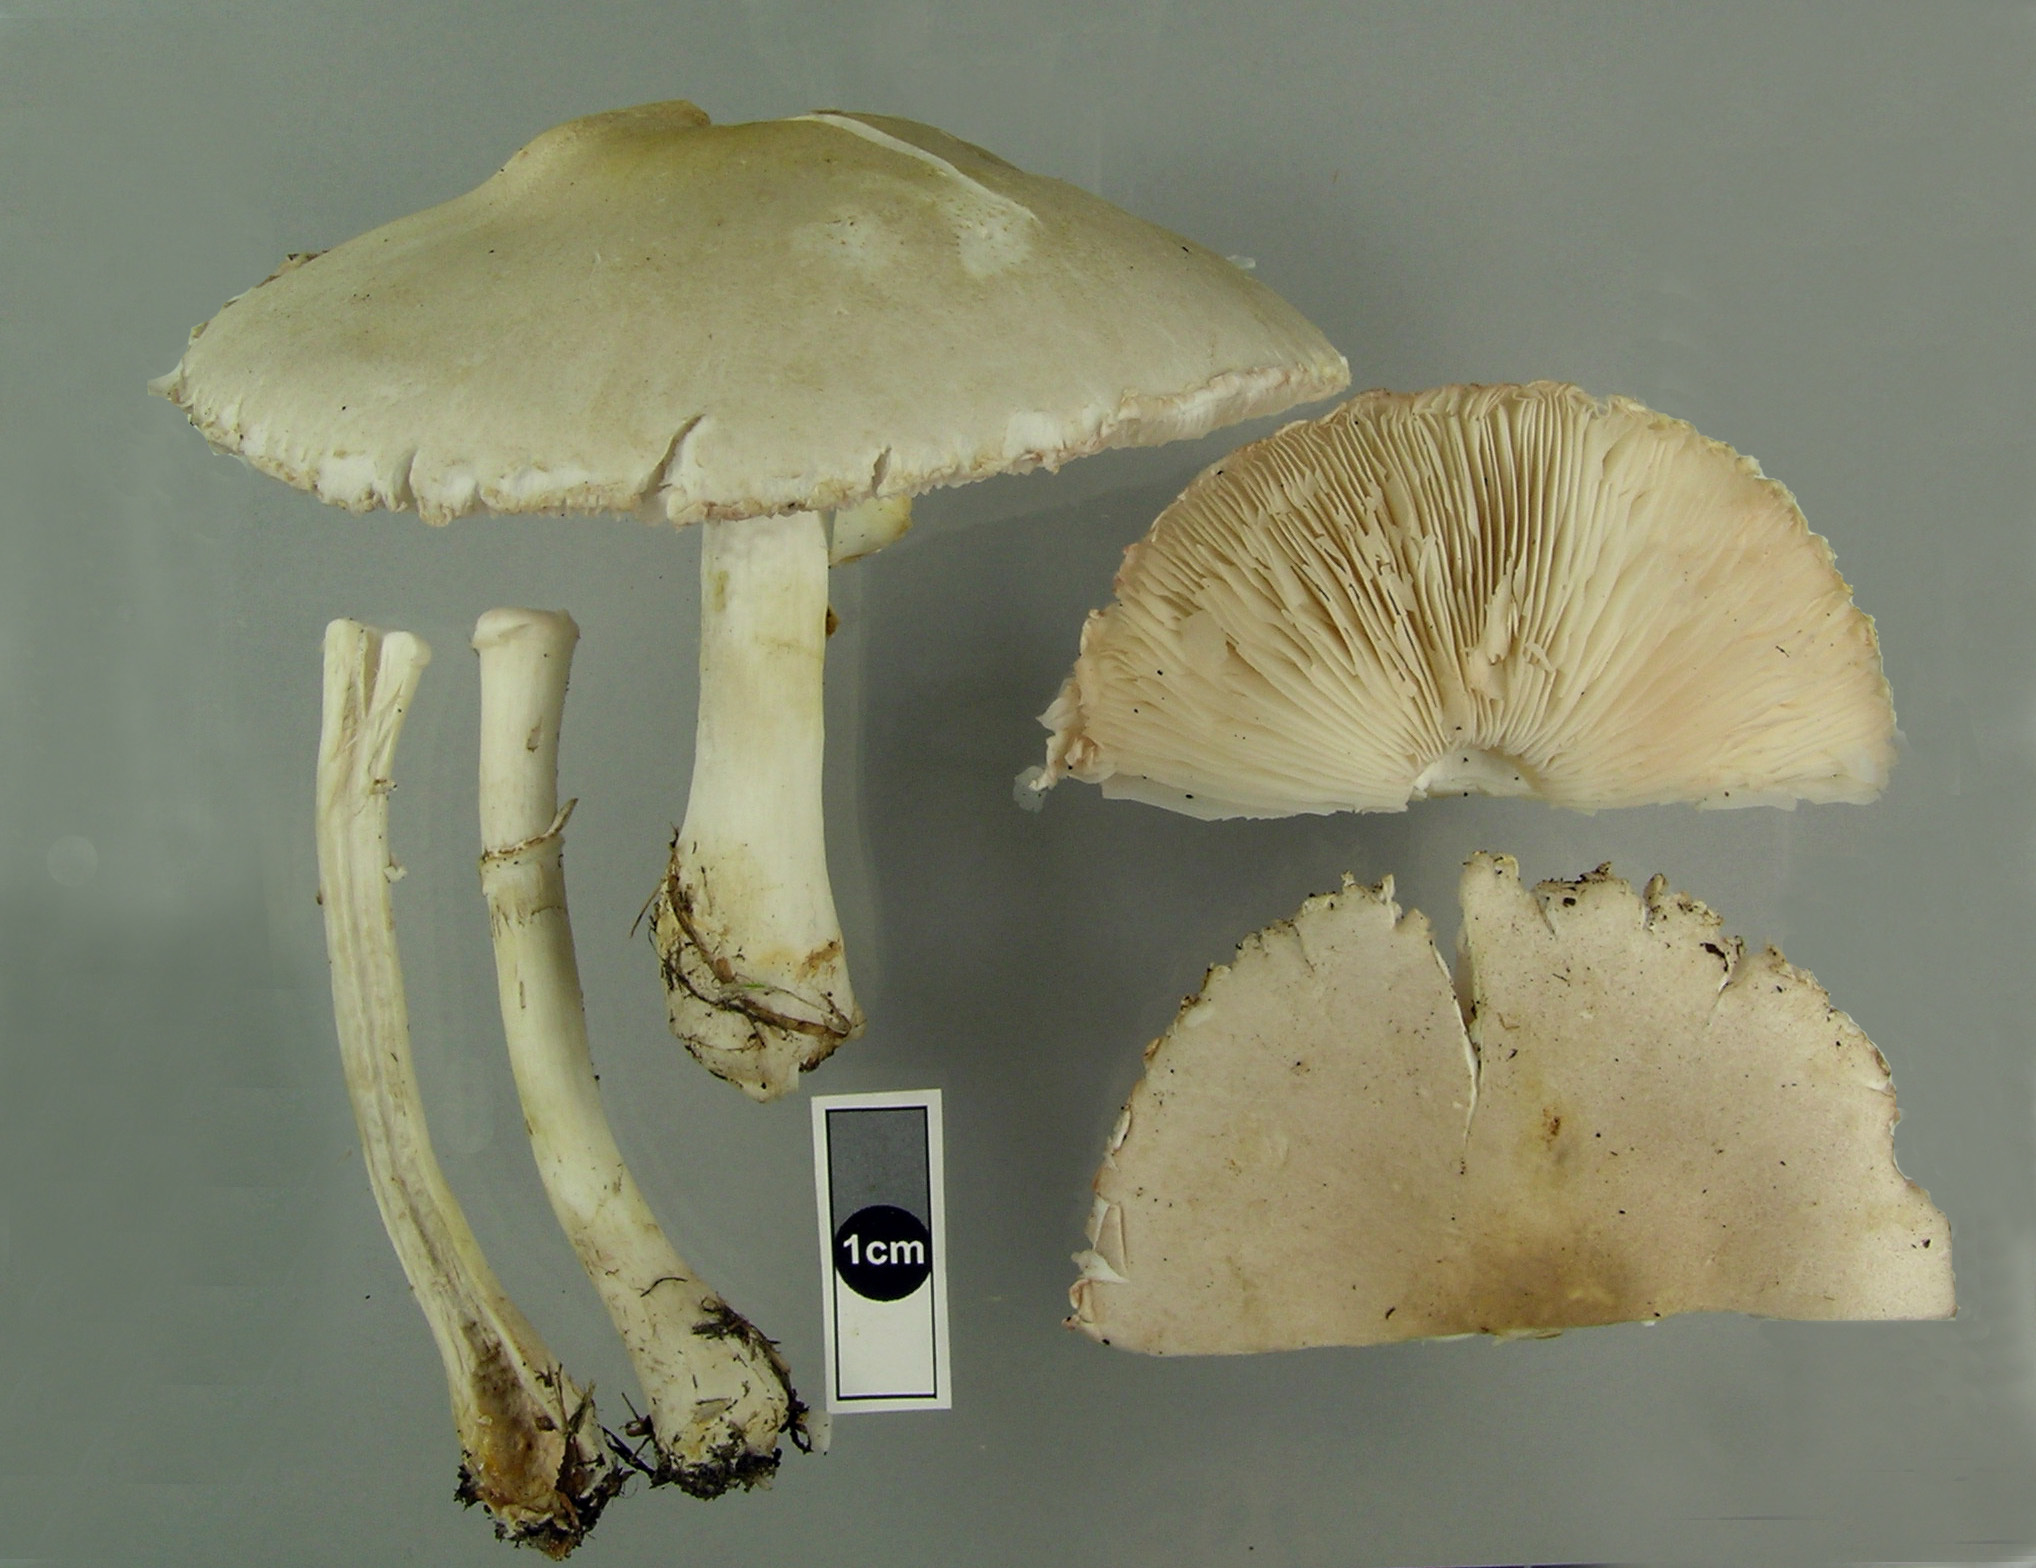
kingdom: Fungi
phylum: Basidiomycota
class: Agaricomycetes
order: Agaricales
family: Agaricaceae
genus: Leucoagaricus
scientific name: Leucoagaricus leucothites
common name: White dapperling
